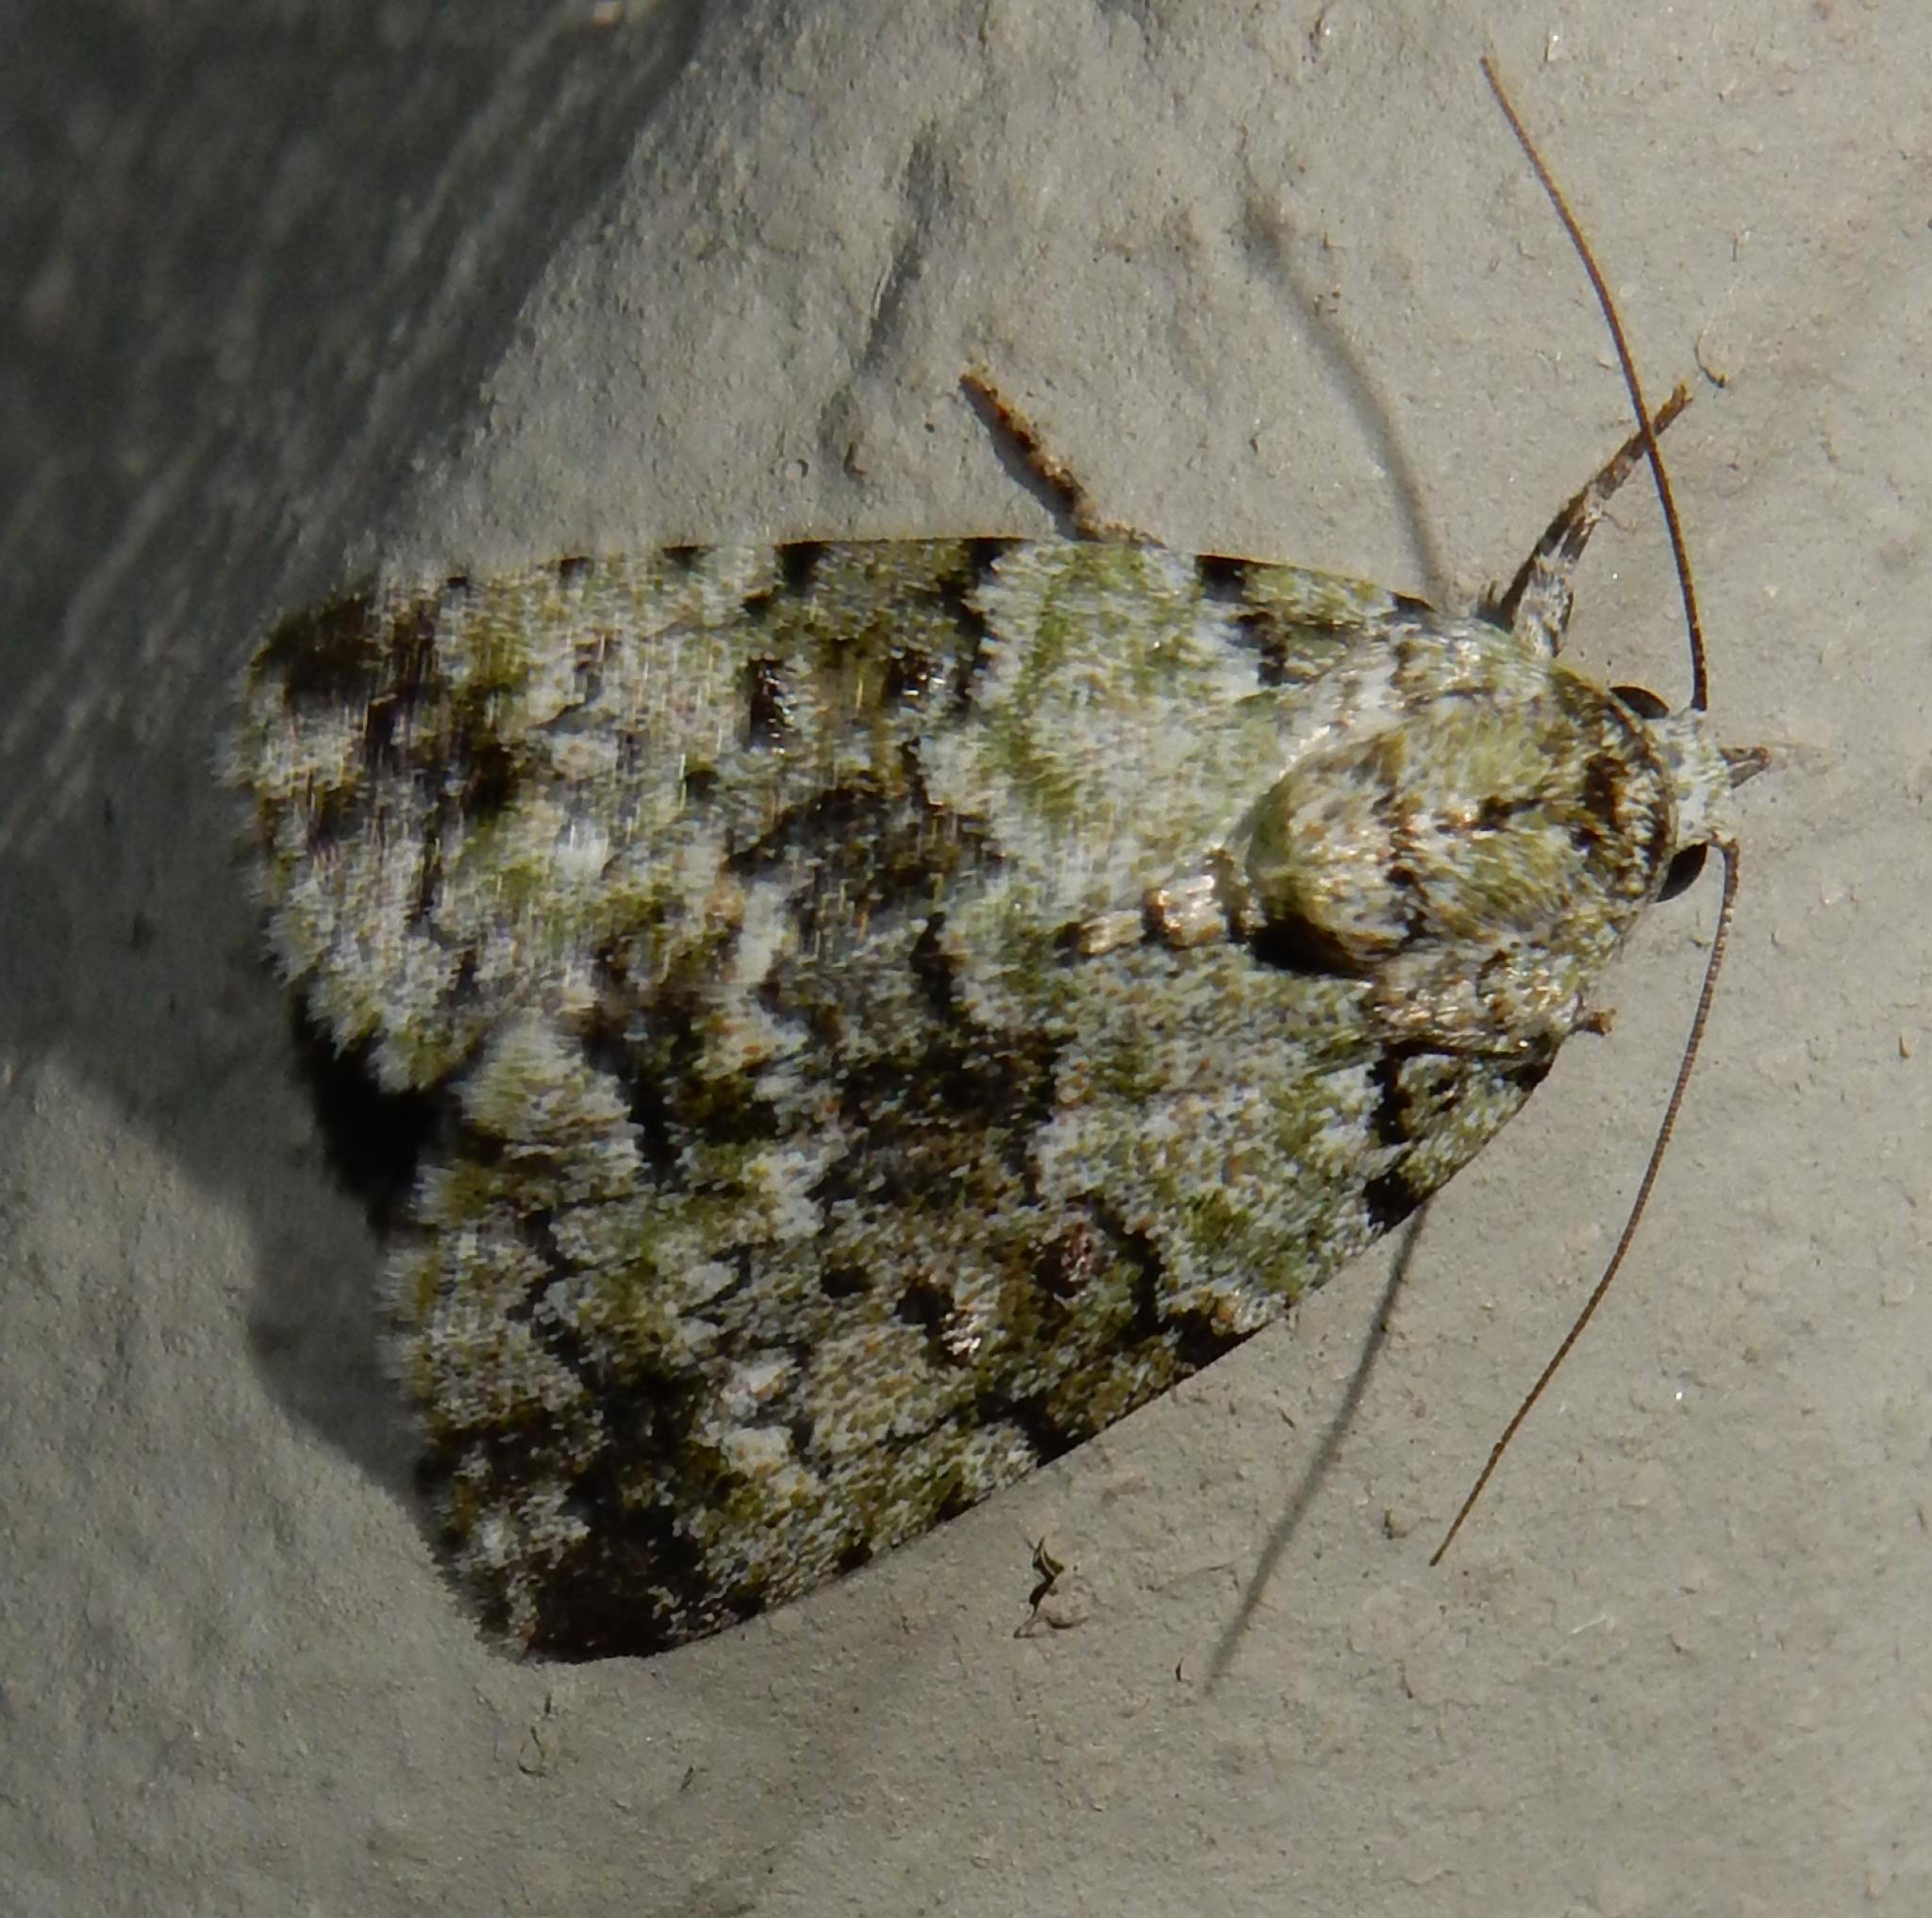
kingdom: Animalia
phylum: Arthropoda
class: Insecta
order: Lepidoptera
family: Nolidae
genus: Blenina
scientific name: Blenina squamifera
